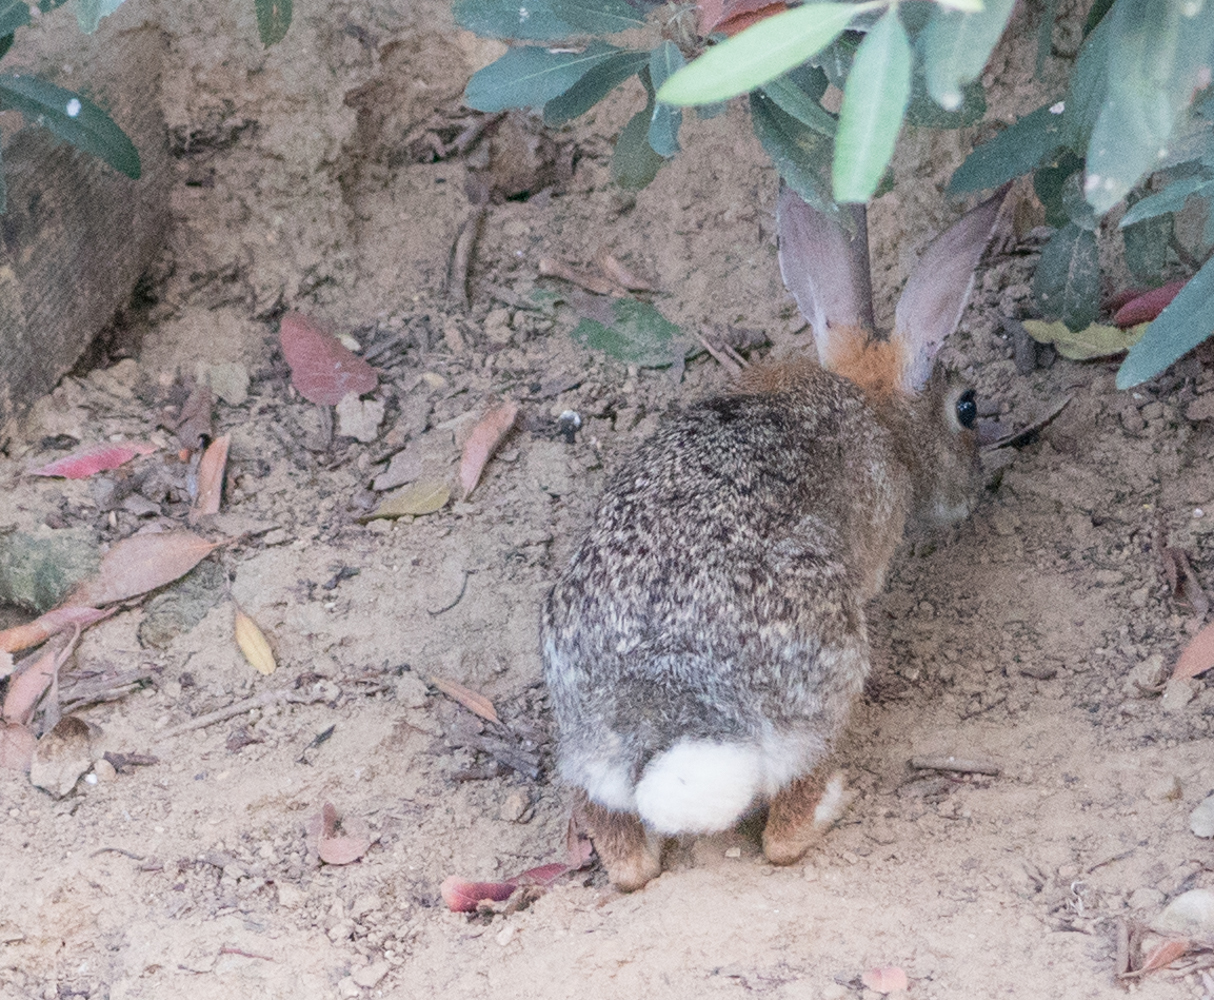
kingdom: Animalia
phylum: Chordata
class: Mammalia
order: Lagomorpha
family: Leporidae
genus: Sylvilagus
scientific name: Sylvilagus audubonii
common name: Desert cottontail
